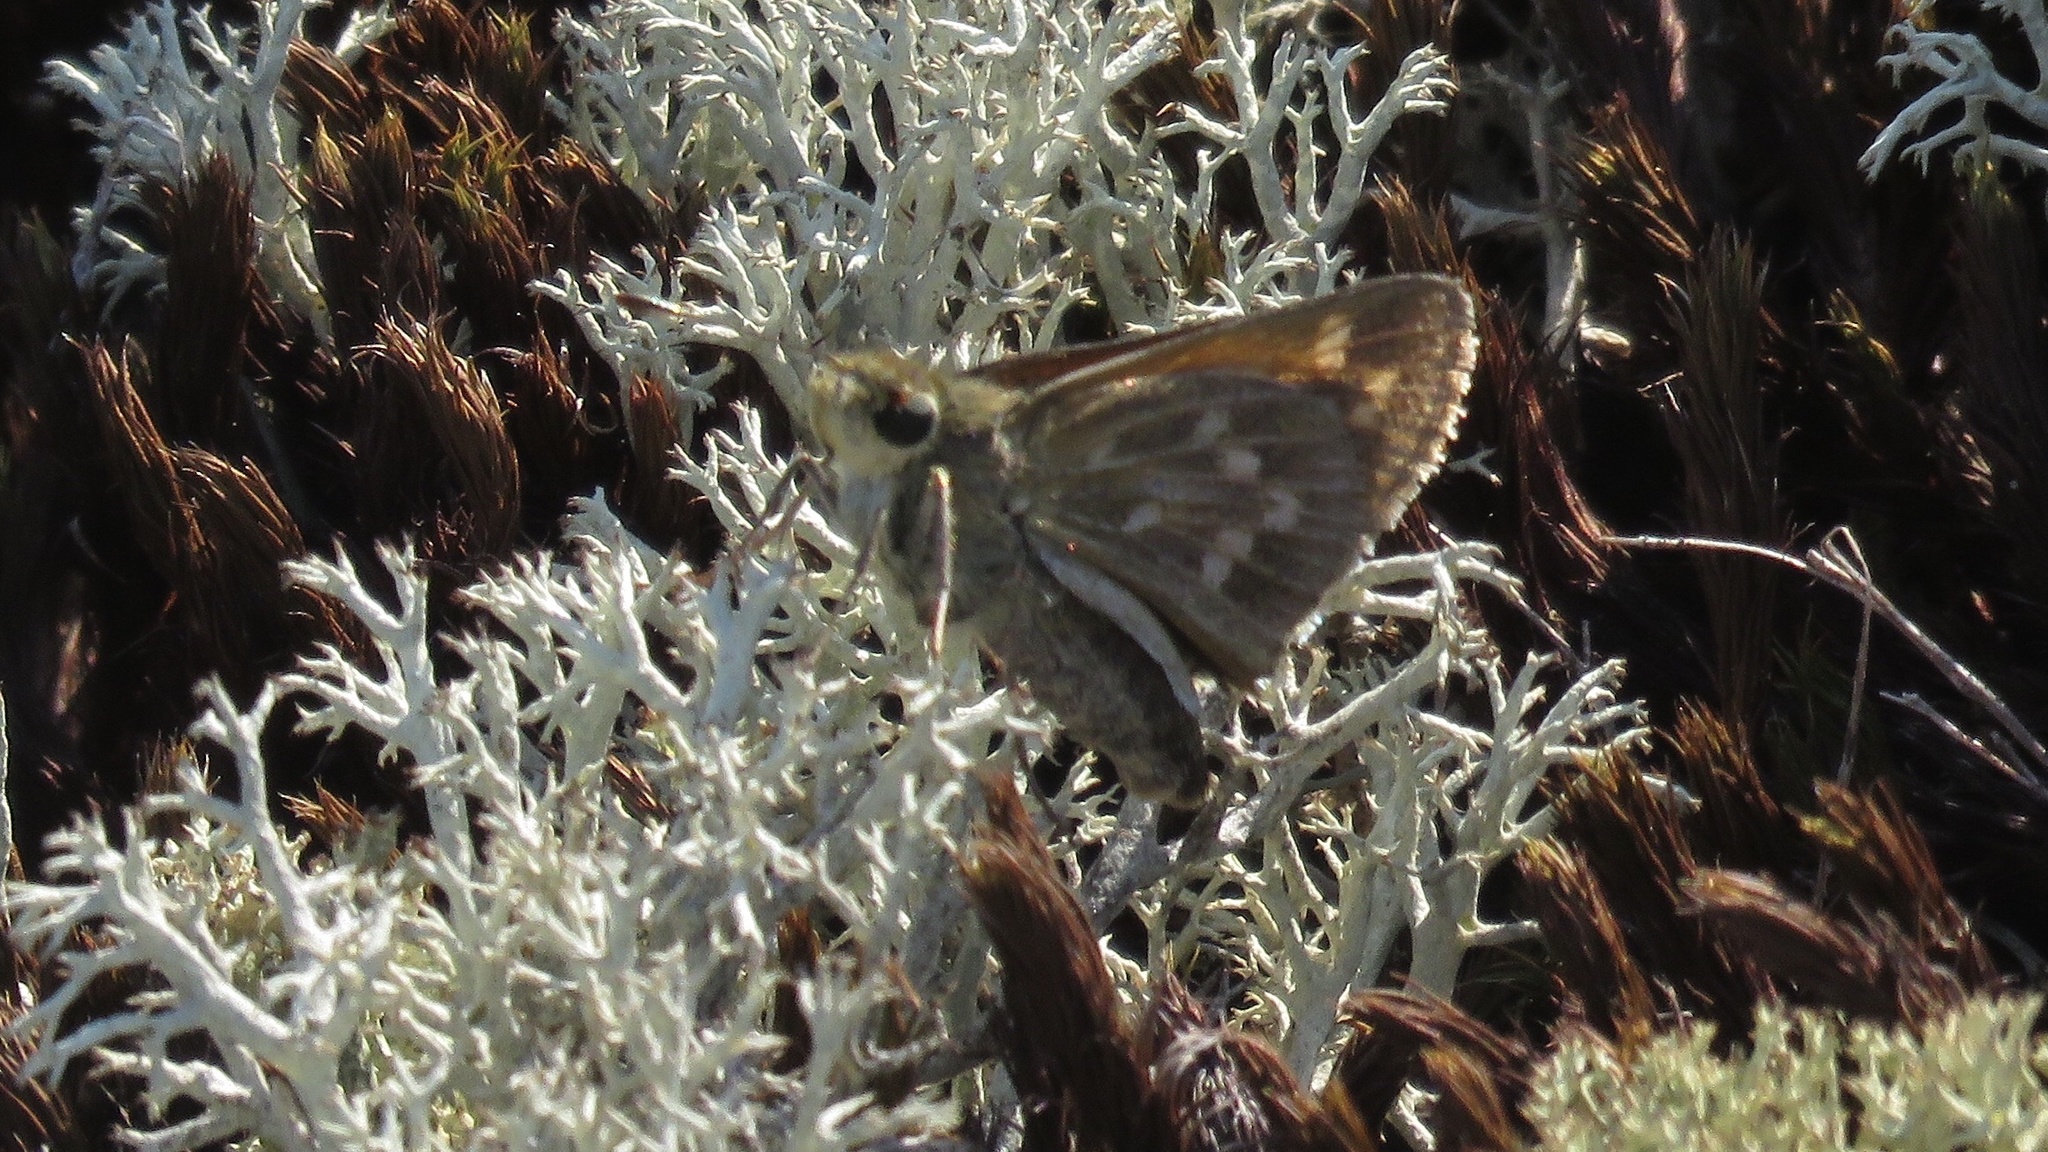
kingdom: Animalia
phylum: Arthropoda
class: Insecta
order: Lepidoptera
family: Hesperiidae
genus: Hesperia
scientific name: Hesperia sassacus
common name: Indian skipper
